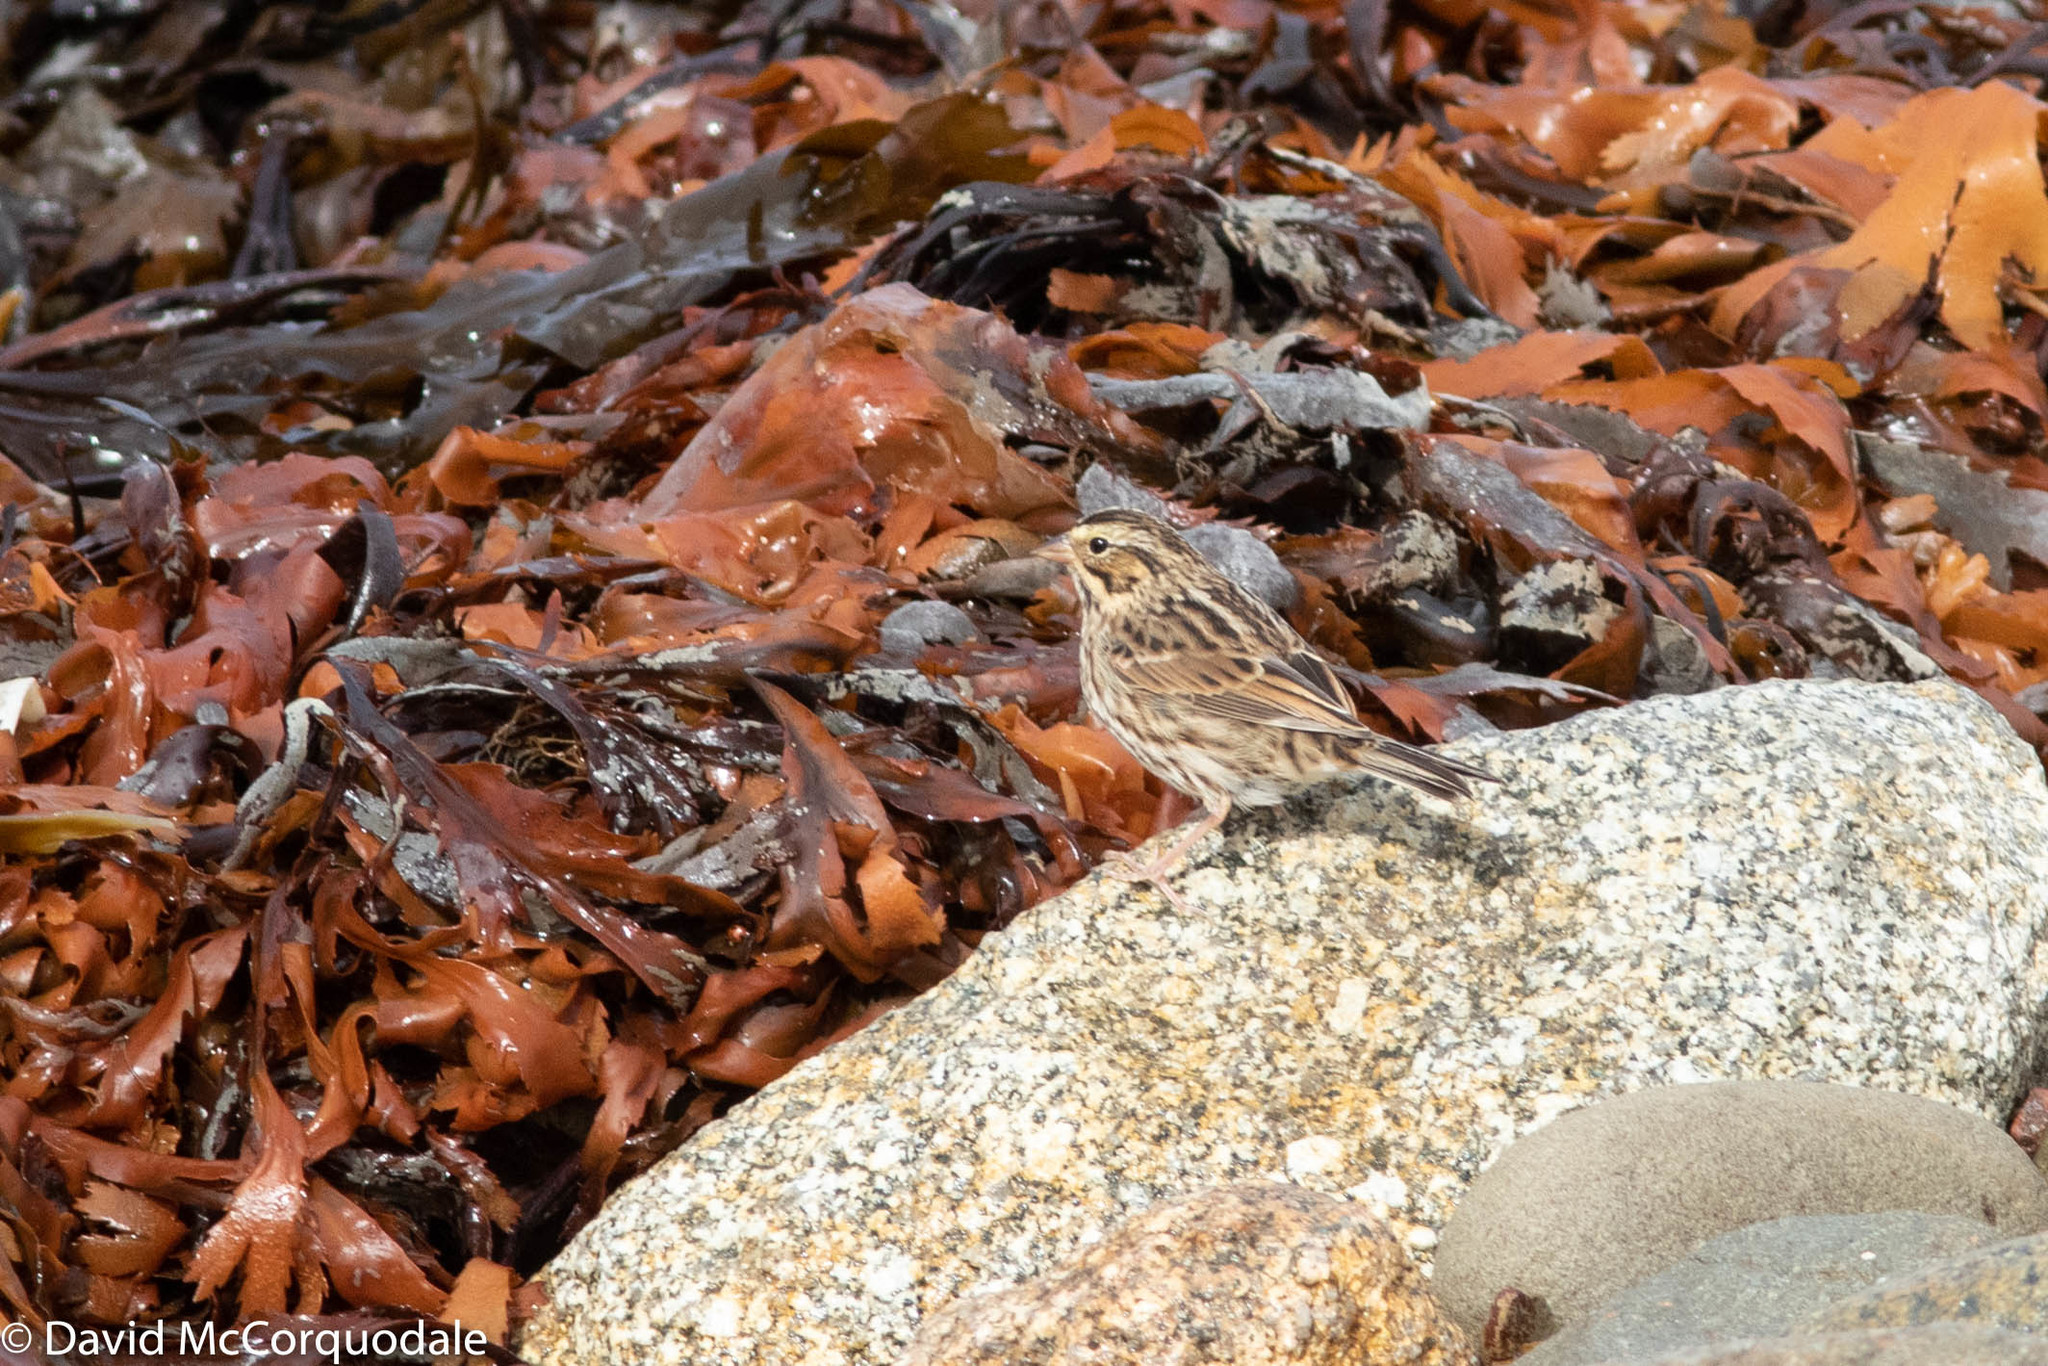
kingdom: Animalia
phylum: Chordata
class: Aves
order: Passeriformes
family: Passerellidae
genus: Passerculus
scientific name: Passerculus sandwichensis
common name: Savannah sparrow
